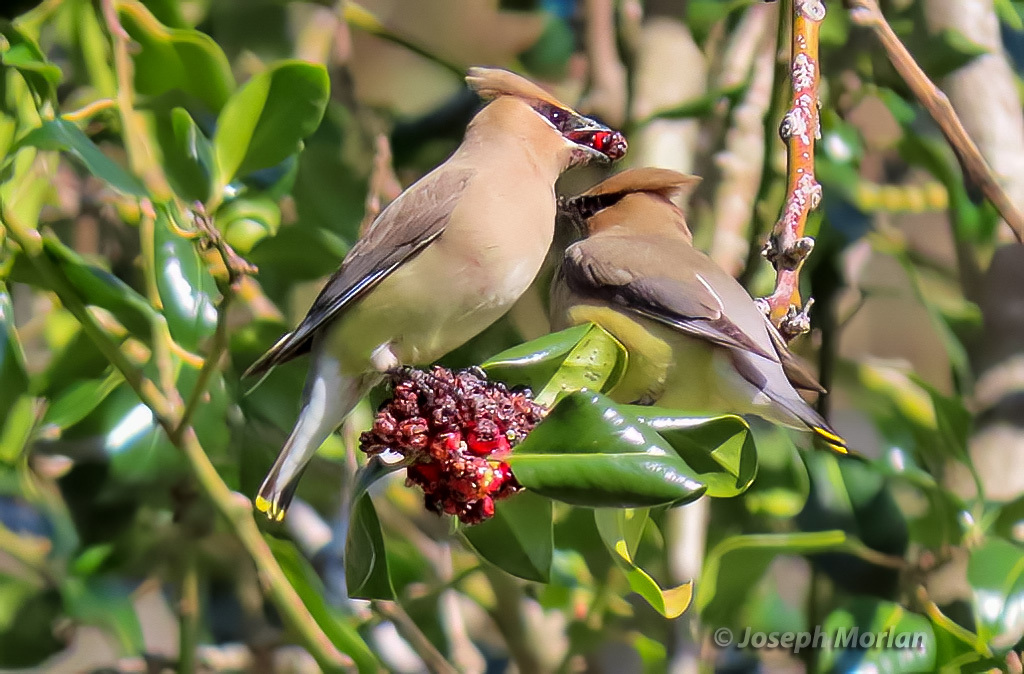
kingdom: Animalia
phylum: Chordata
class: Aves
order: Passeriformes
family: Bombycillidae
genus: Bombycilla
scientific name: Bombycilla cedrorum
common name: Cedar waxwing
